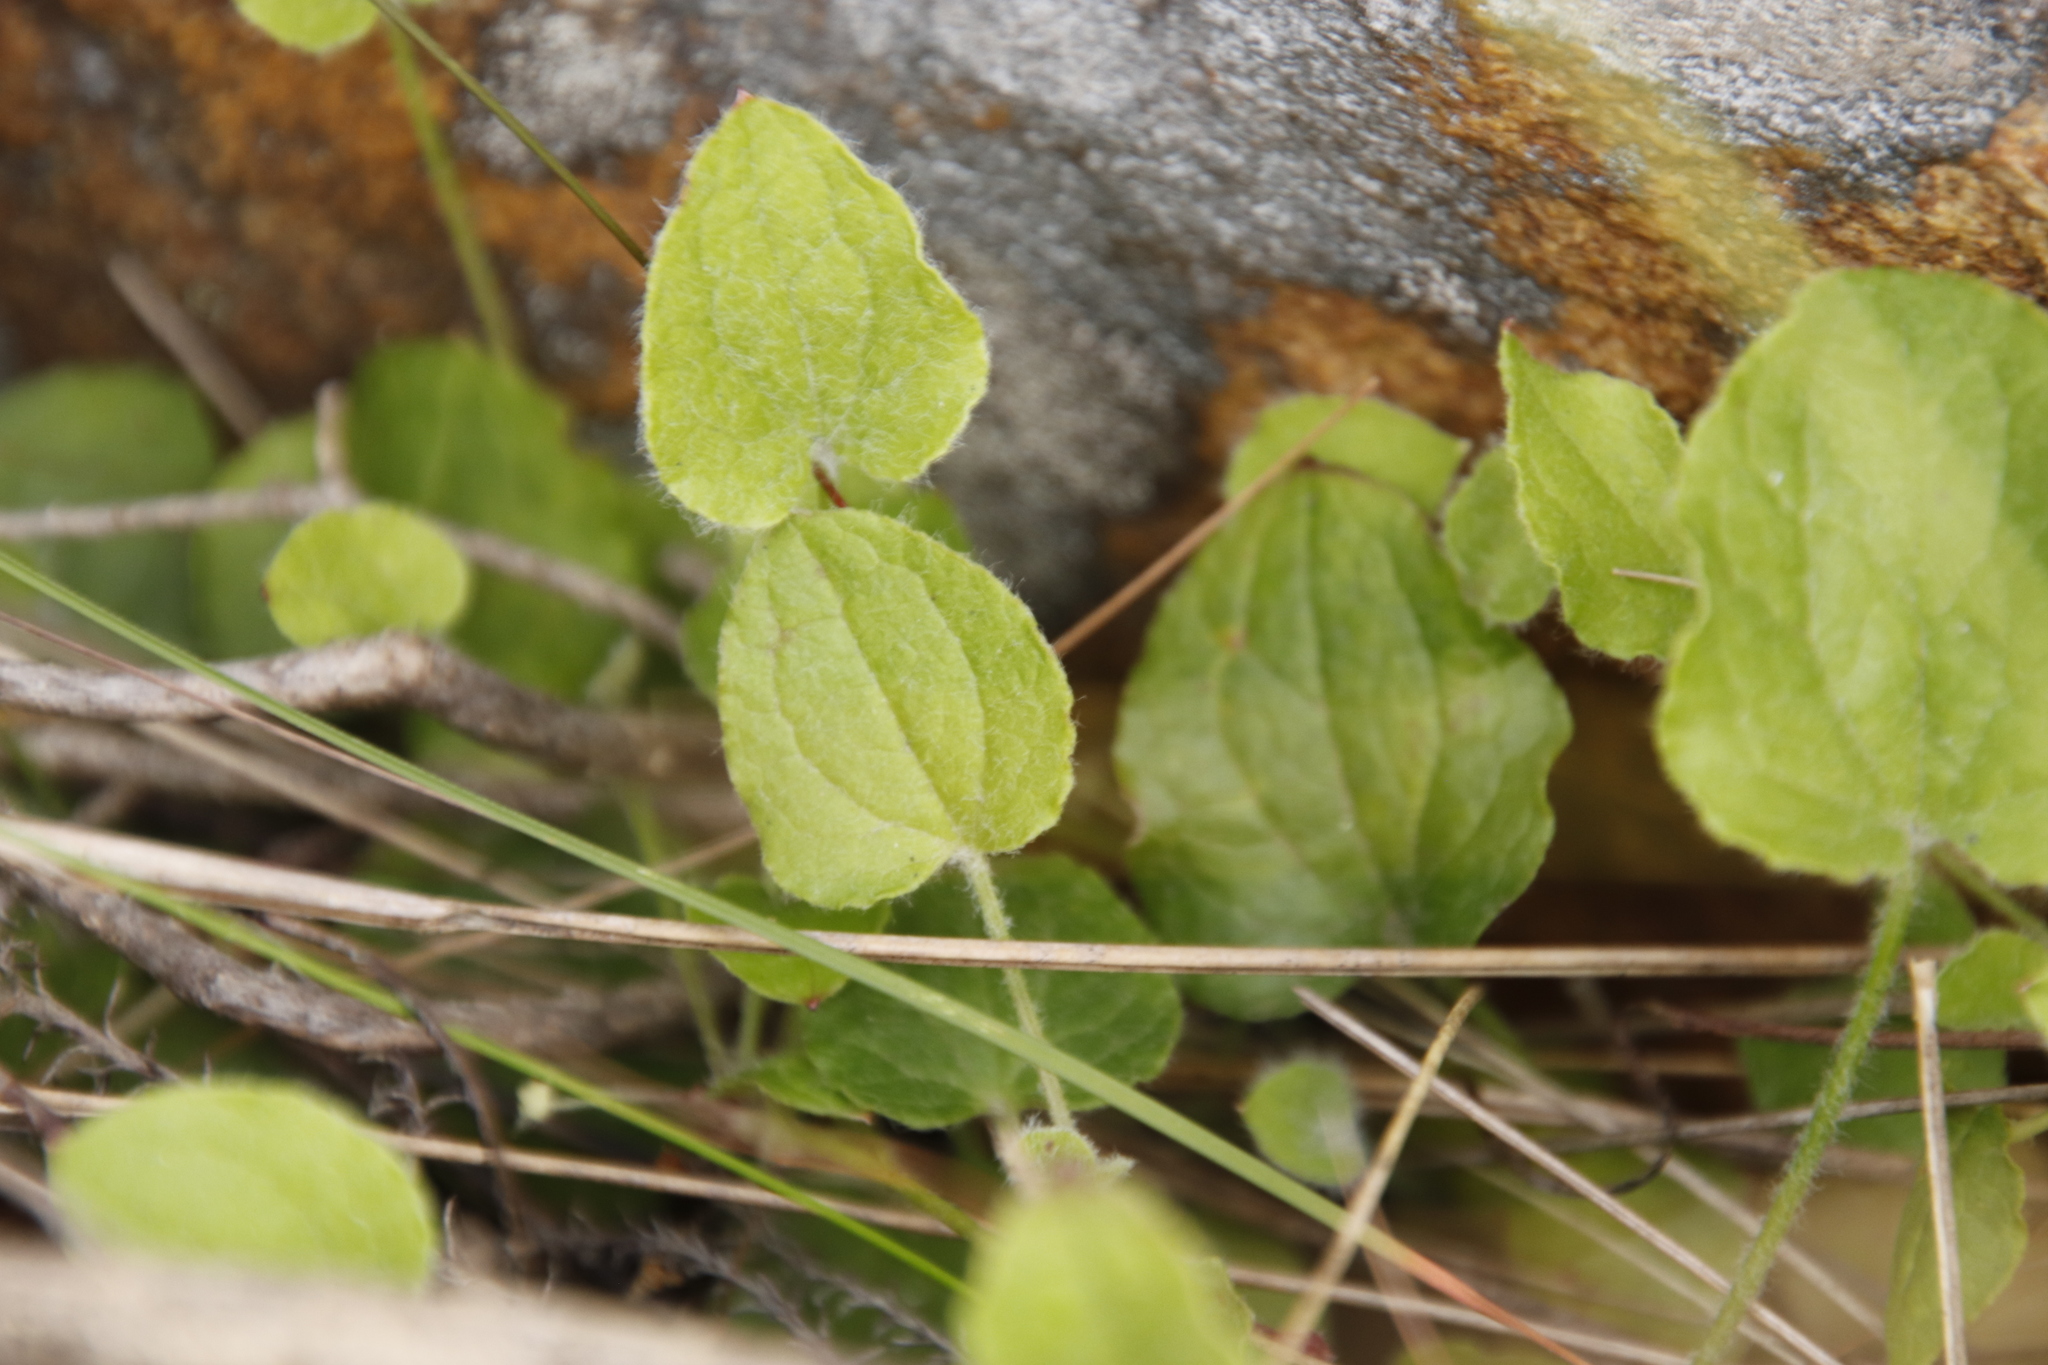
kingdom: Plantae
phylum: Tracheophyta
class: Magnoliopsida
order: Apiales
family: Apiaceae
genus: Centella
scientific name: Centella villosa
